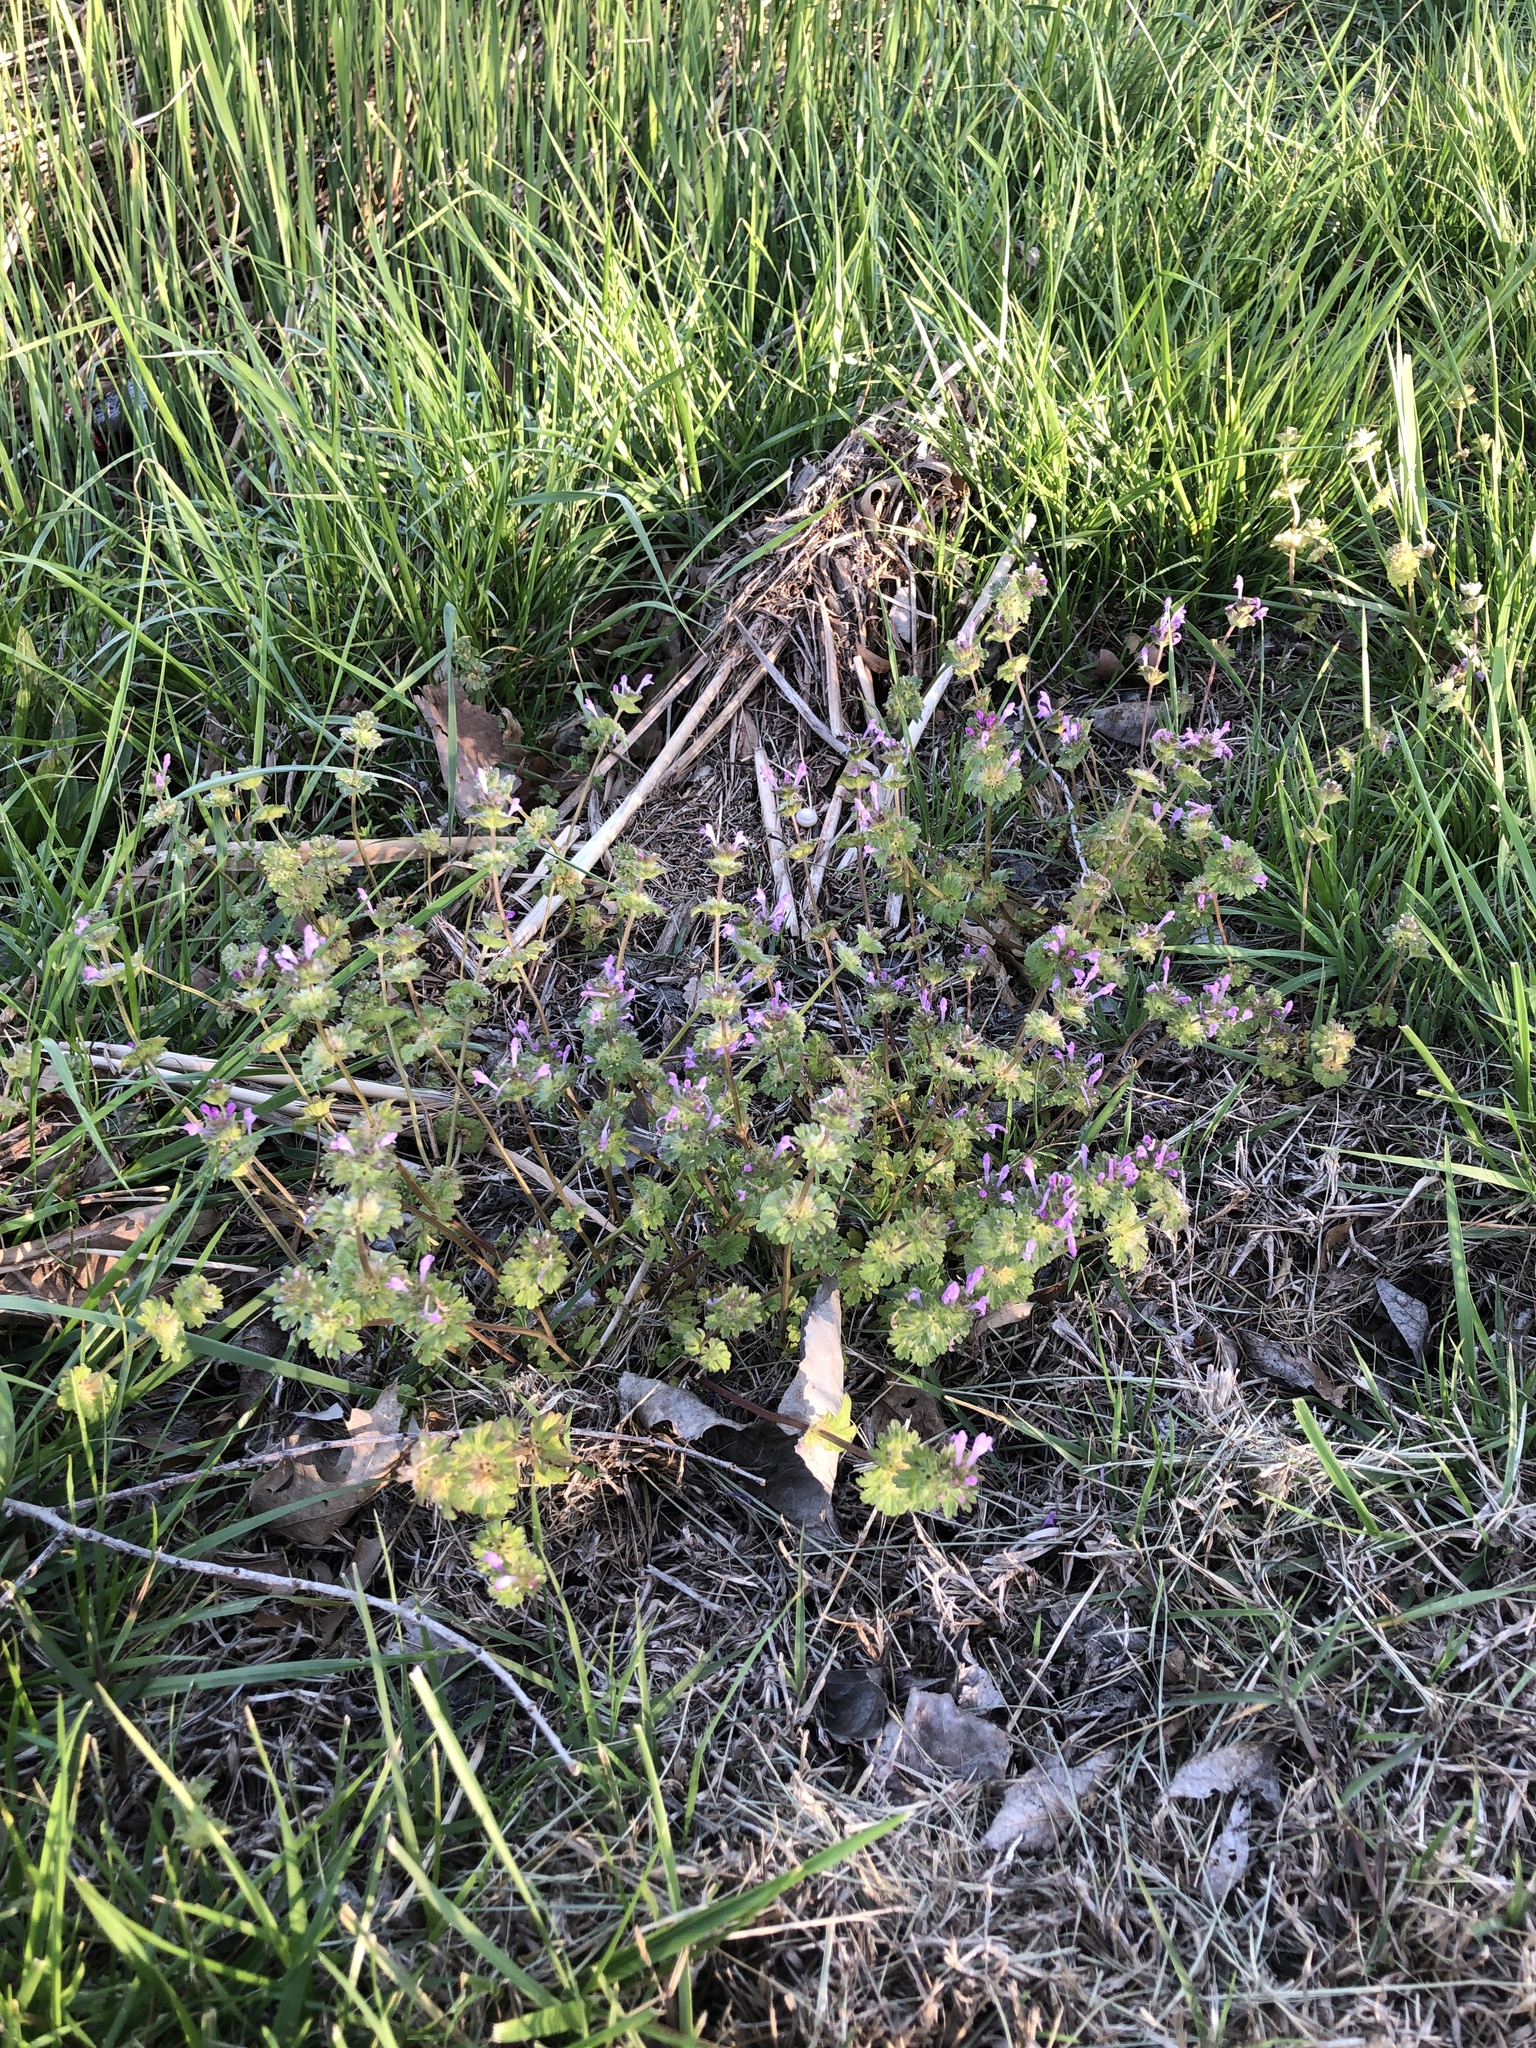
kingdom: Plantae
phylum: Tracheophyta
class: Magnoliopsida
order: Lamiales
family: Lamiaceae
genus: Lamium
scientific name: Lamium amplexicaule
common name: Henbit dead-nettle
